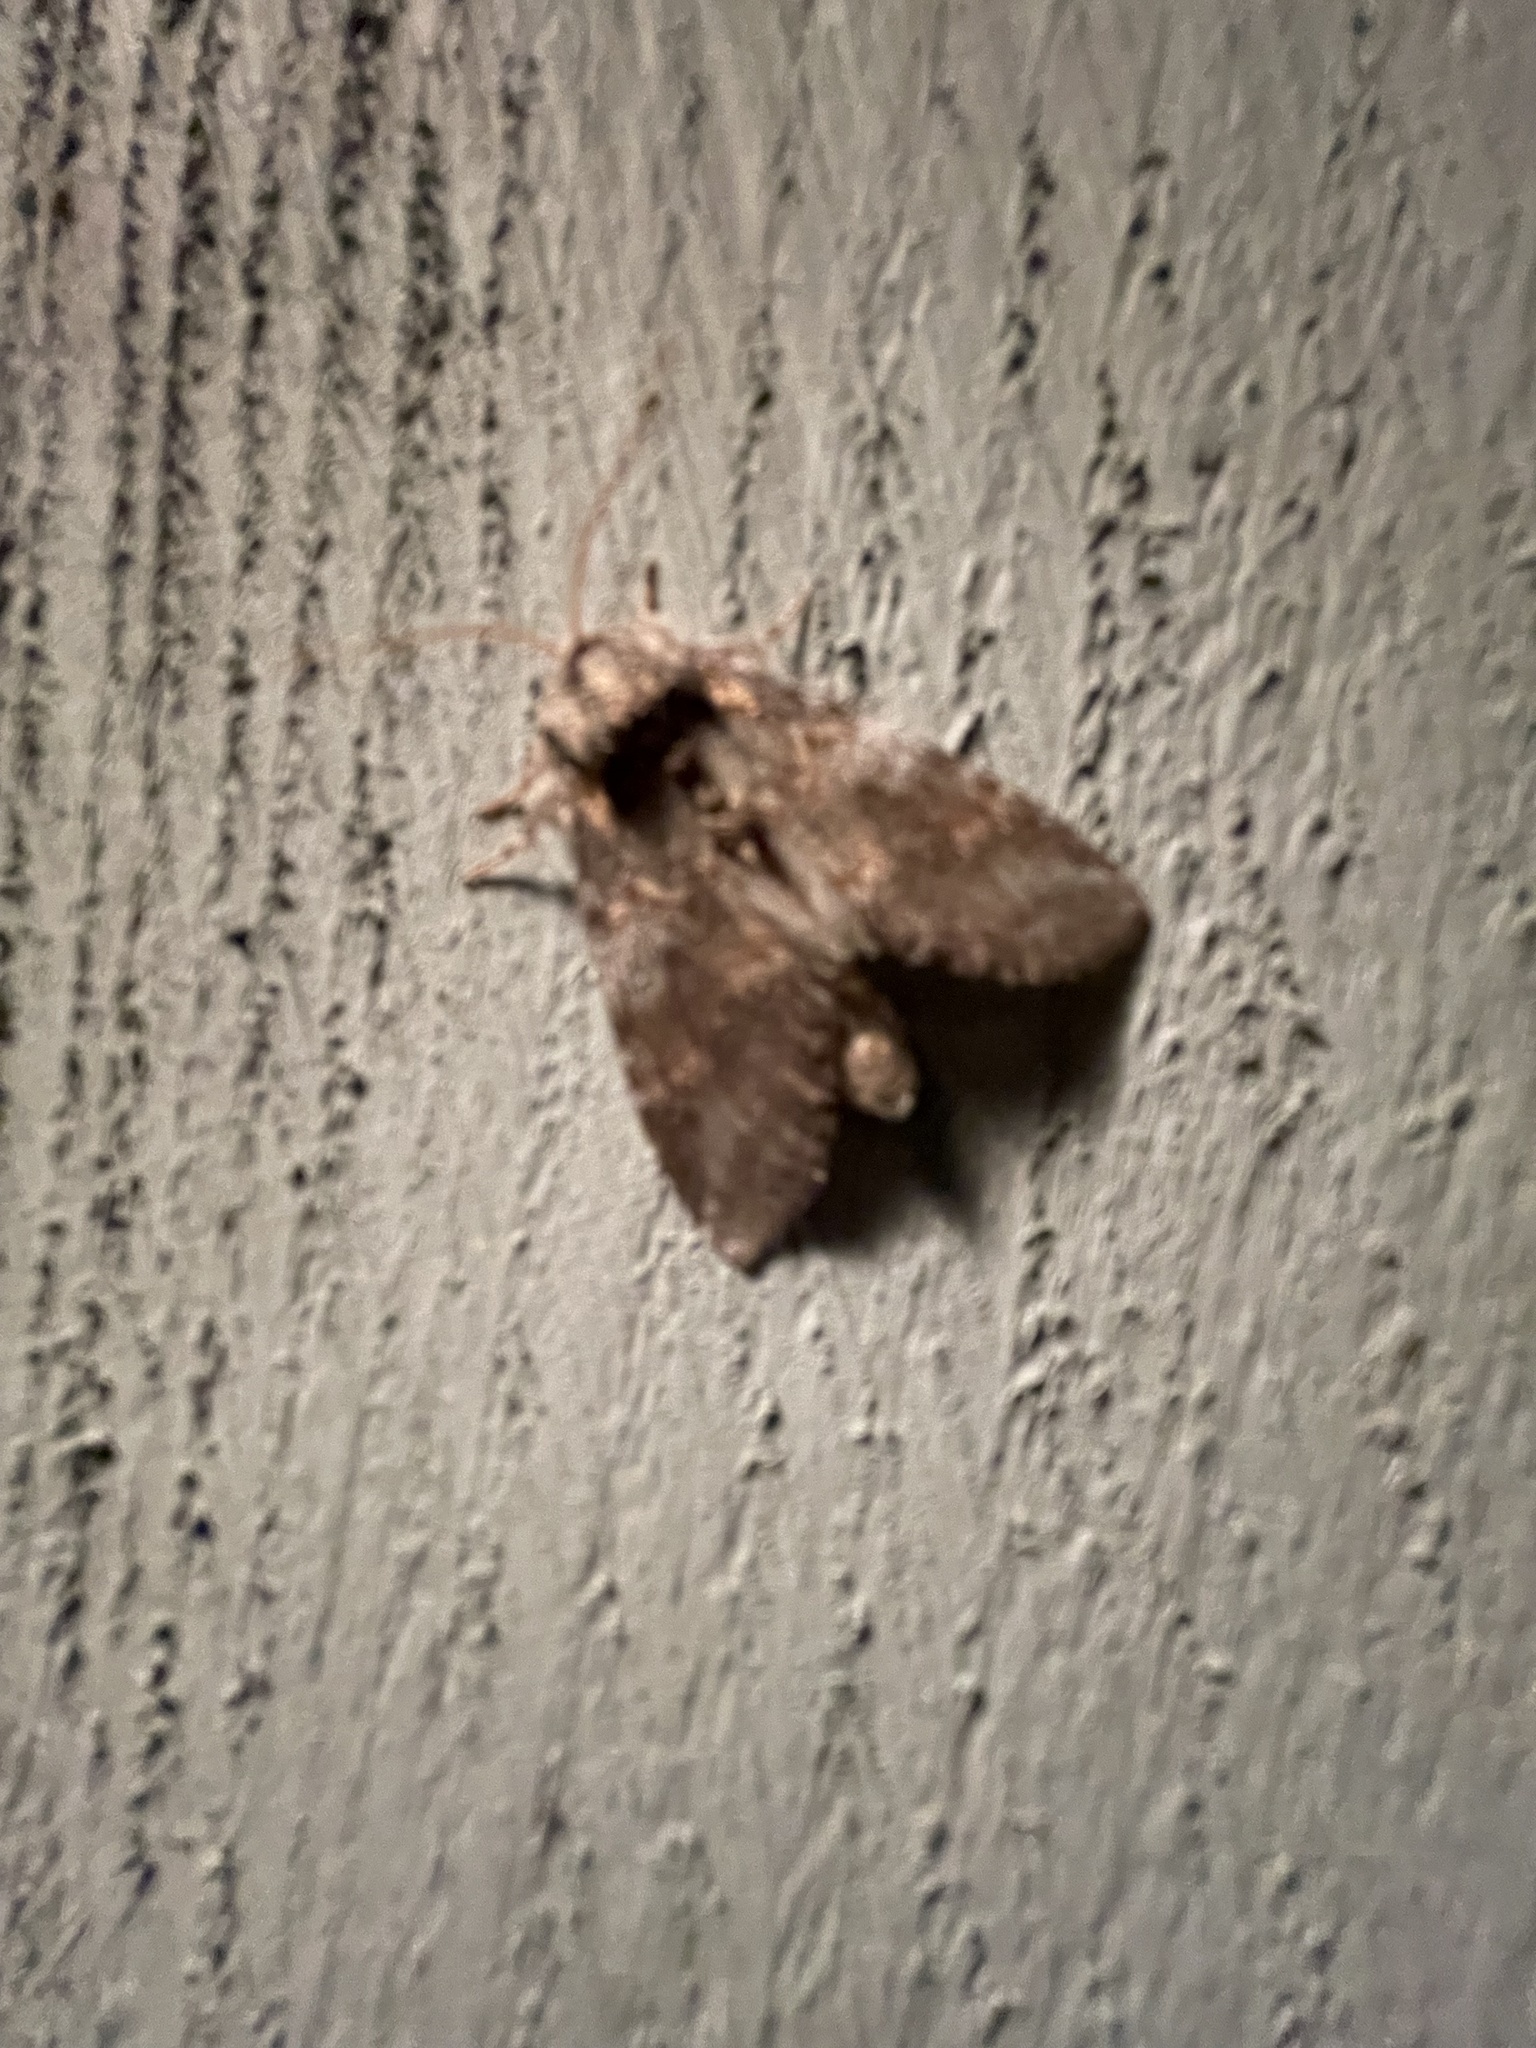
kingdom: Animalia
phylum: Arthropoda
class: Insecta
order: Lepidoptera
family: Notodontidae
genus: Peridea
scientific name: Peridea angulosa
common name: Angulose prominent
